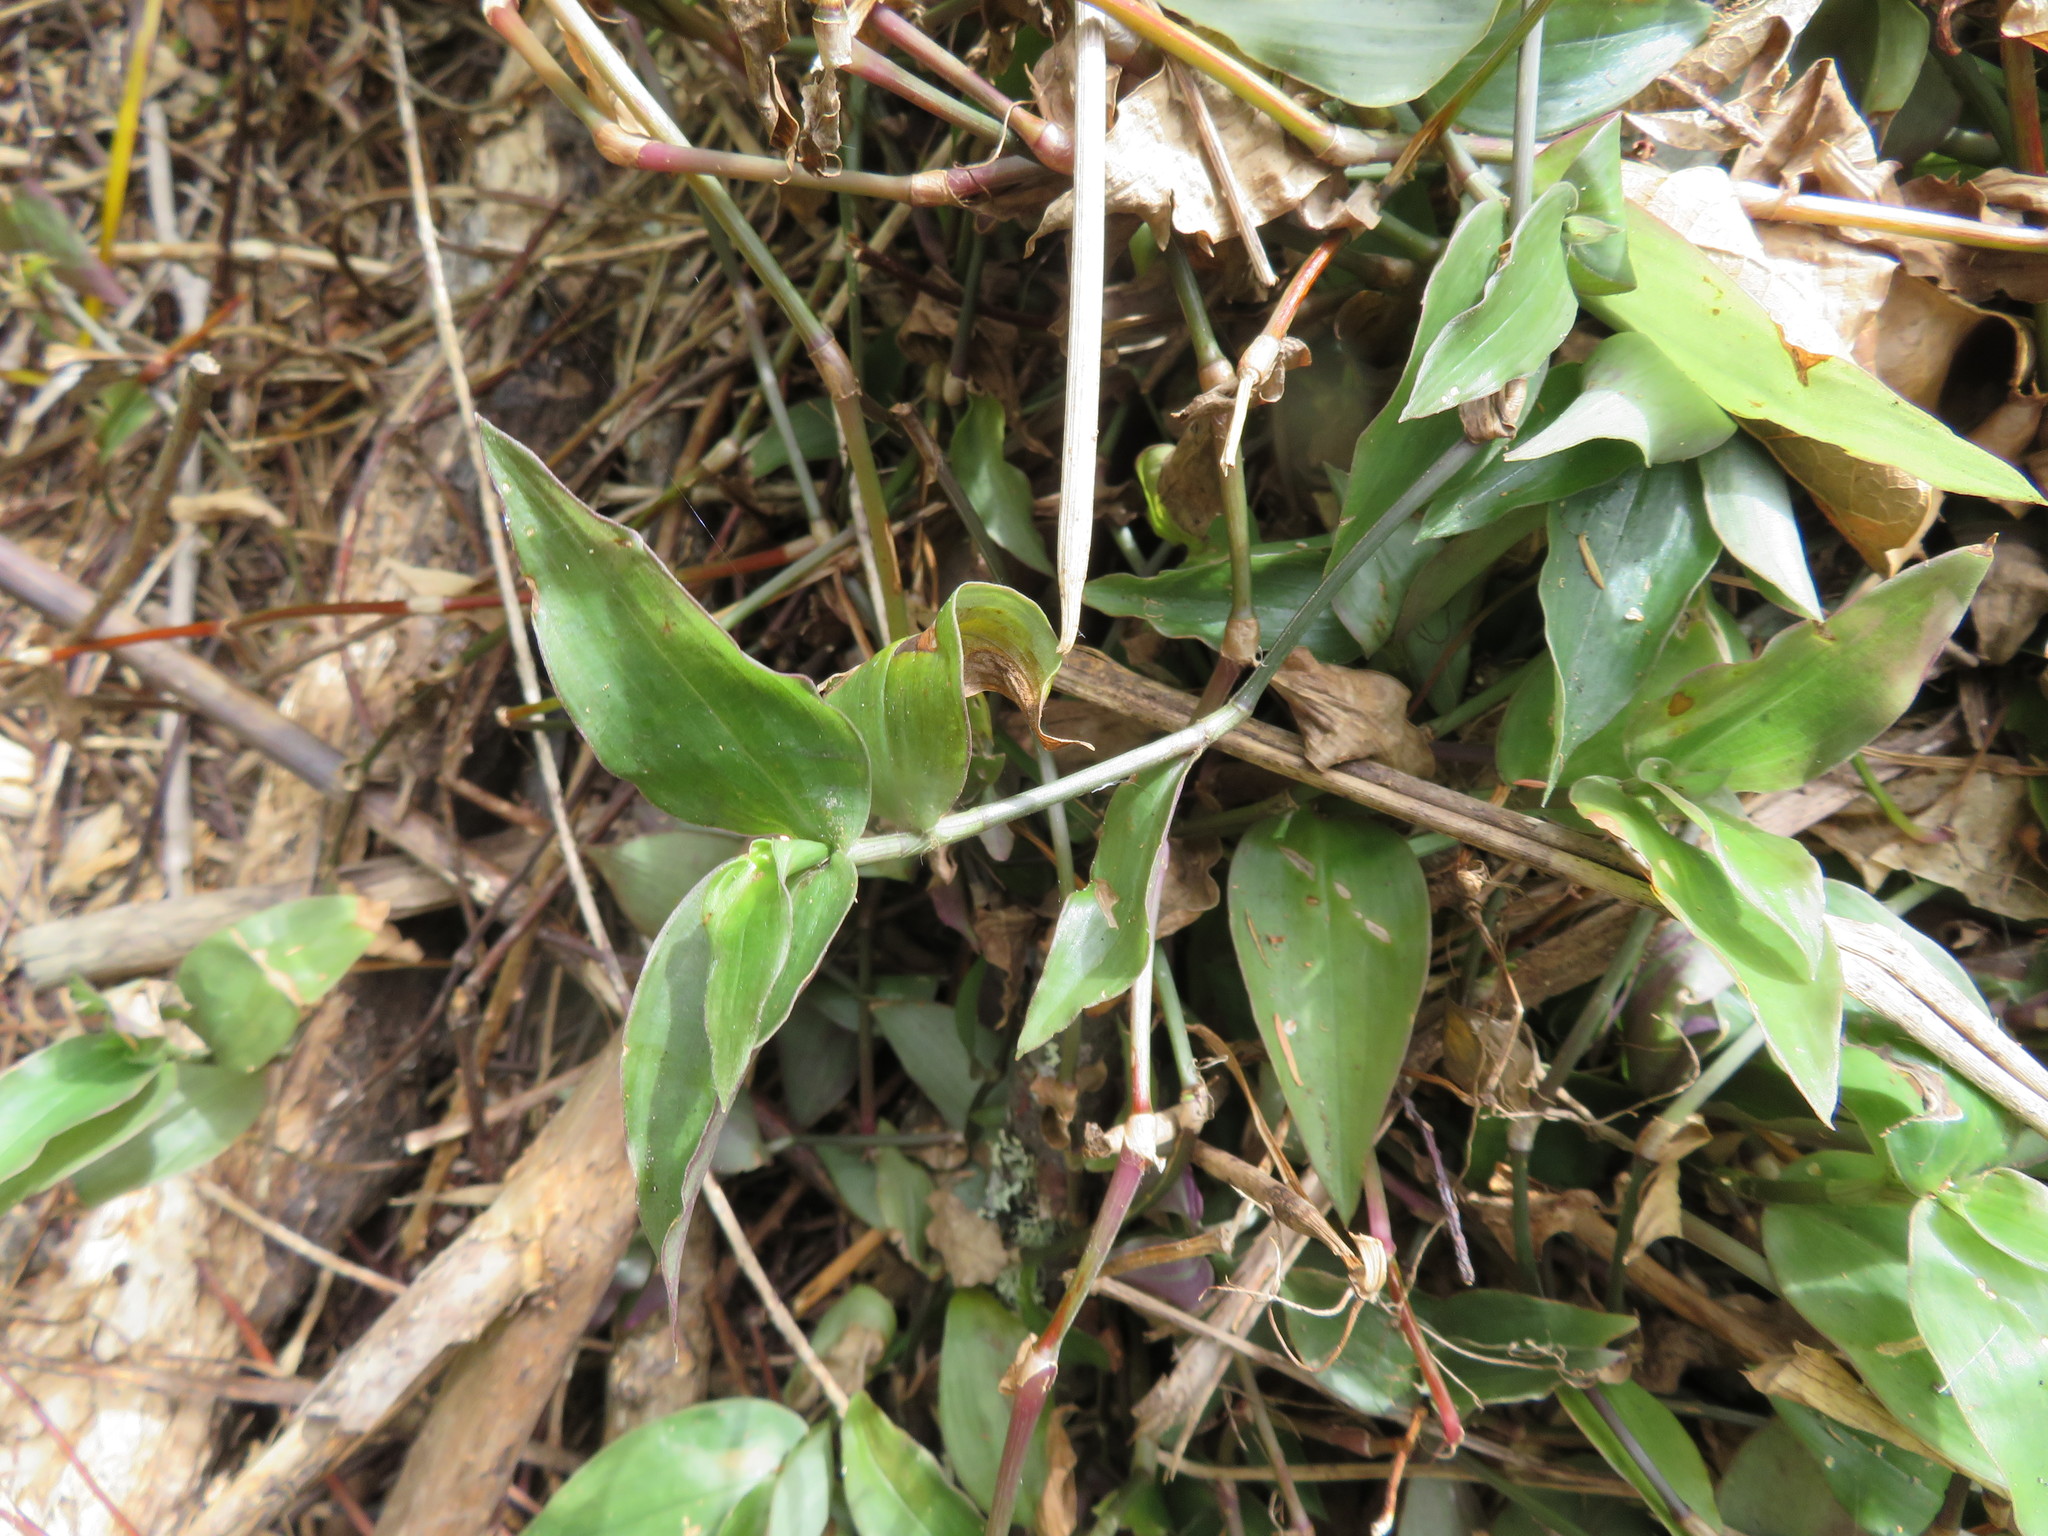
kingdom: Plantae
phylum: Tracheophyta
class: Liliopsida
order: Commelinales
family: Commelinaceae
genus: Tradescantia
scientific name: Tradescantia fluminensis
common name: Wandering-jew
